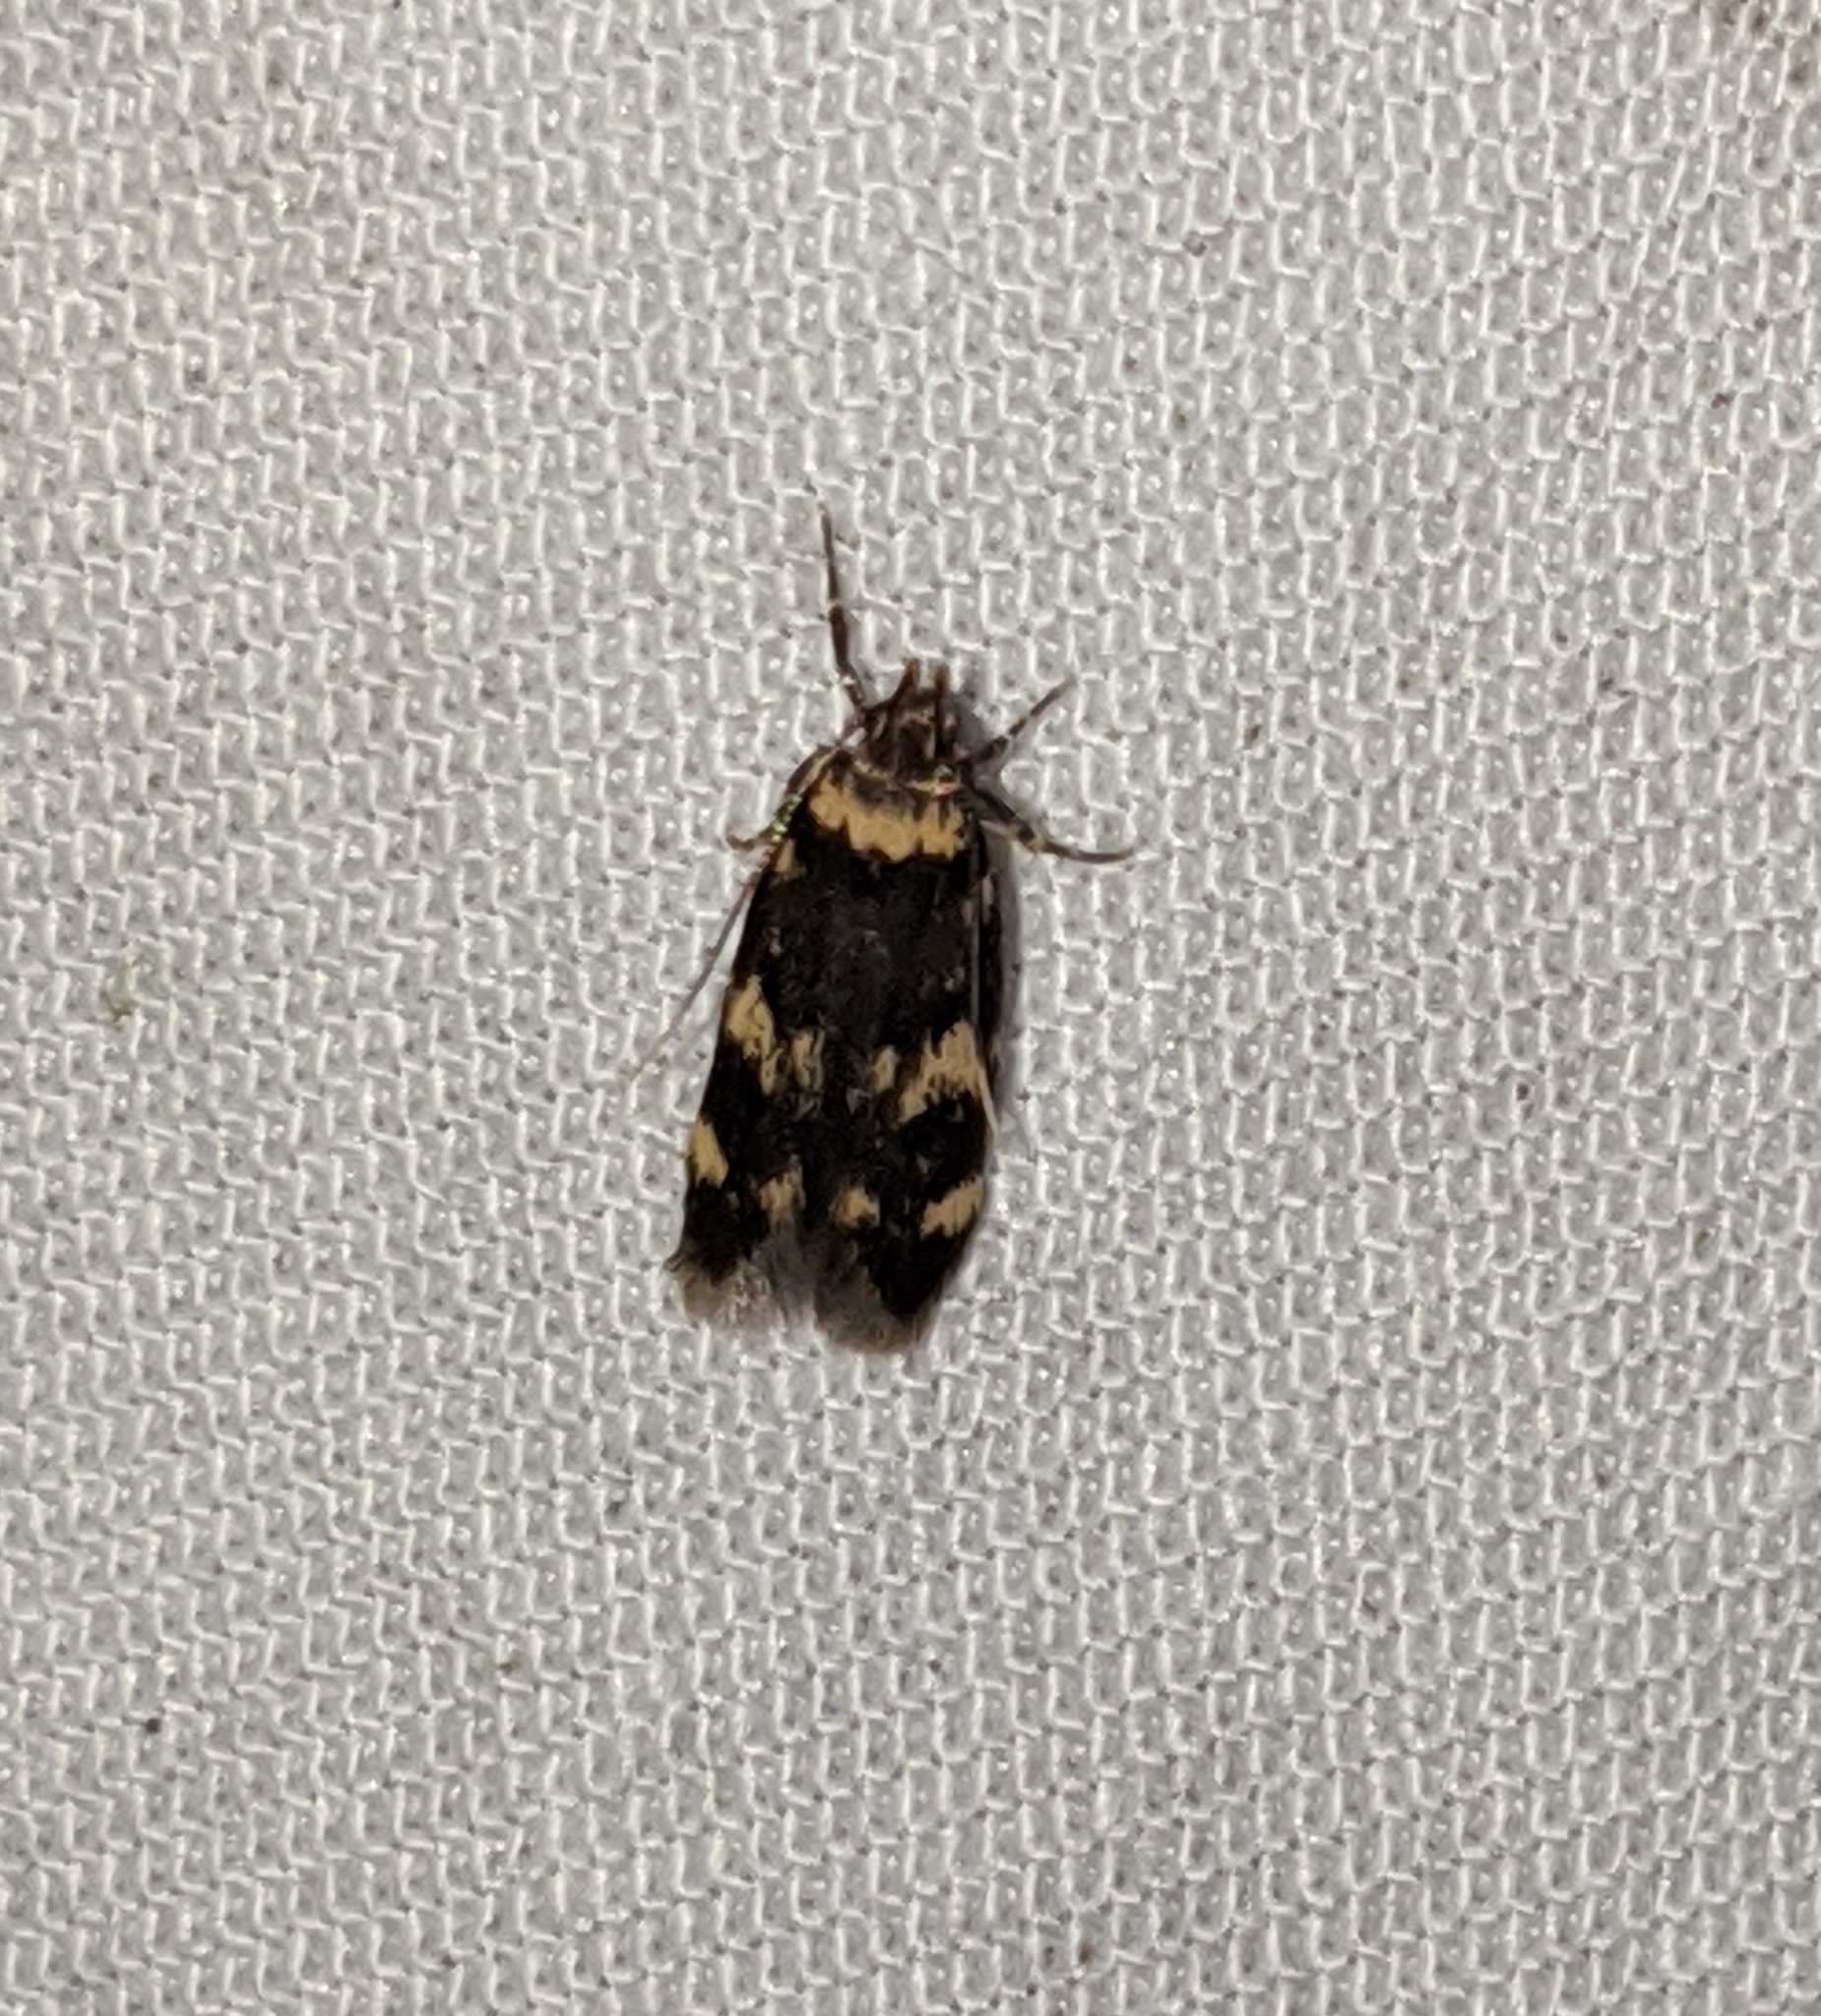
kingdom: Animalia
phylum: Arthropoda
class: Insecta
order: Lepidoptera
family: Autostichidae
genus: Oegoconia
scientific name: Oegoconia quadripuncta
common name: Four-spotted obscure
